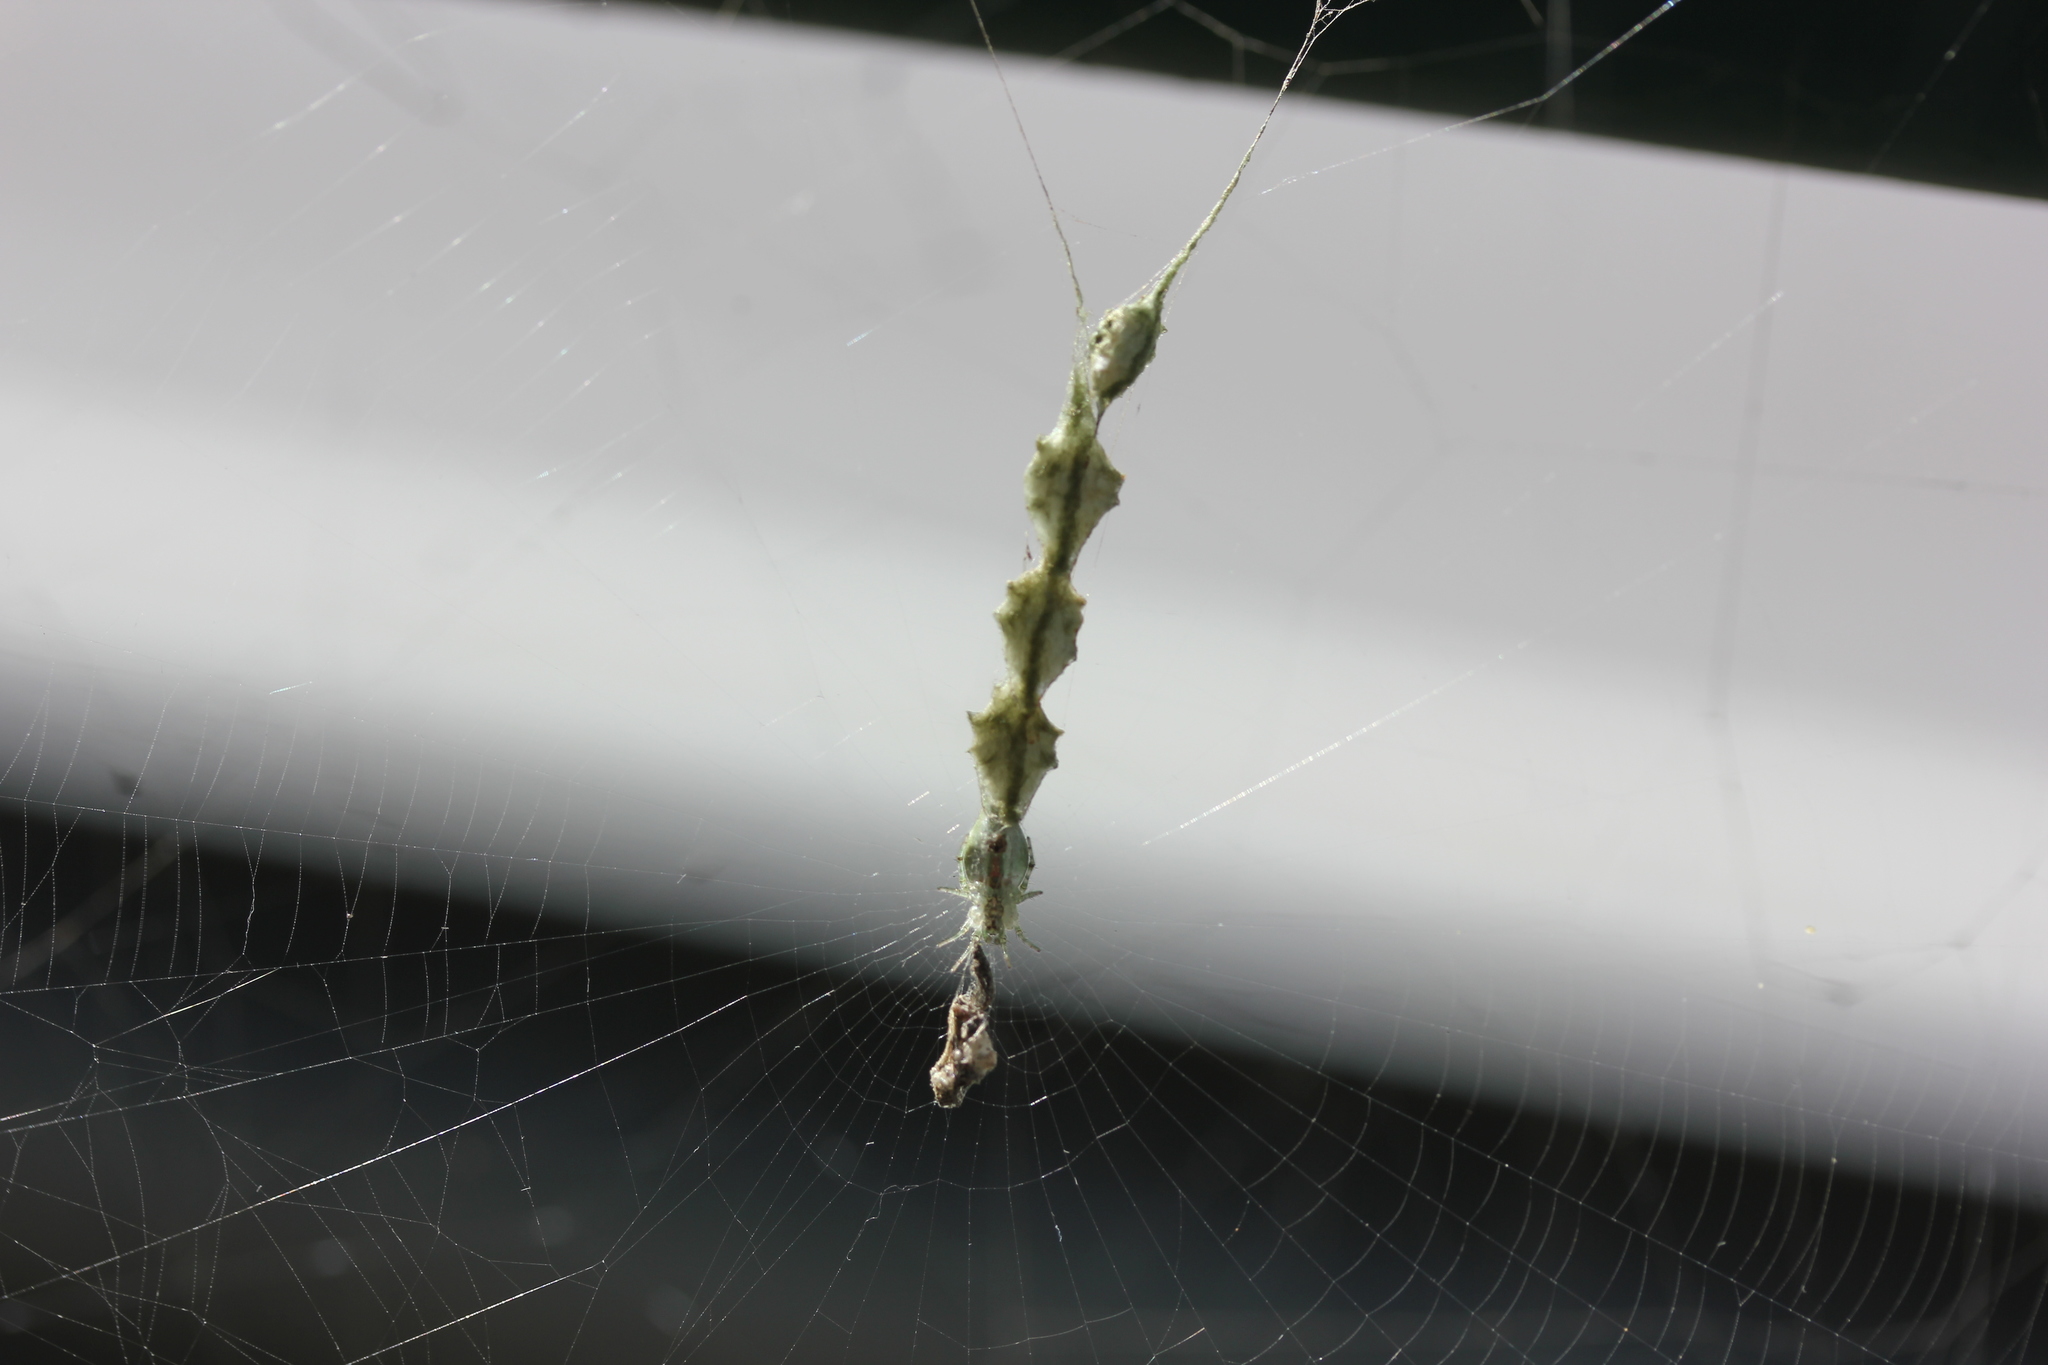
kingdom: Animalia
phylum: Arthropoda
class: Arachnida
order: Araneae
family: Araneidae
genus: Allocyclosa
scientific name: Allocyclosa bifurca
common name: Orb weavers
